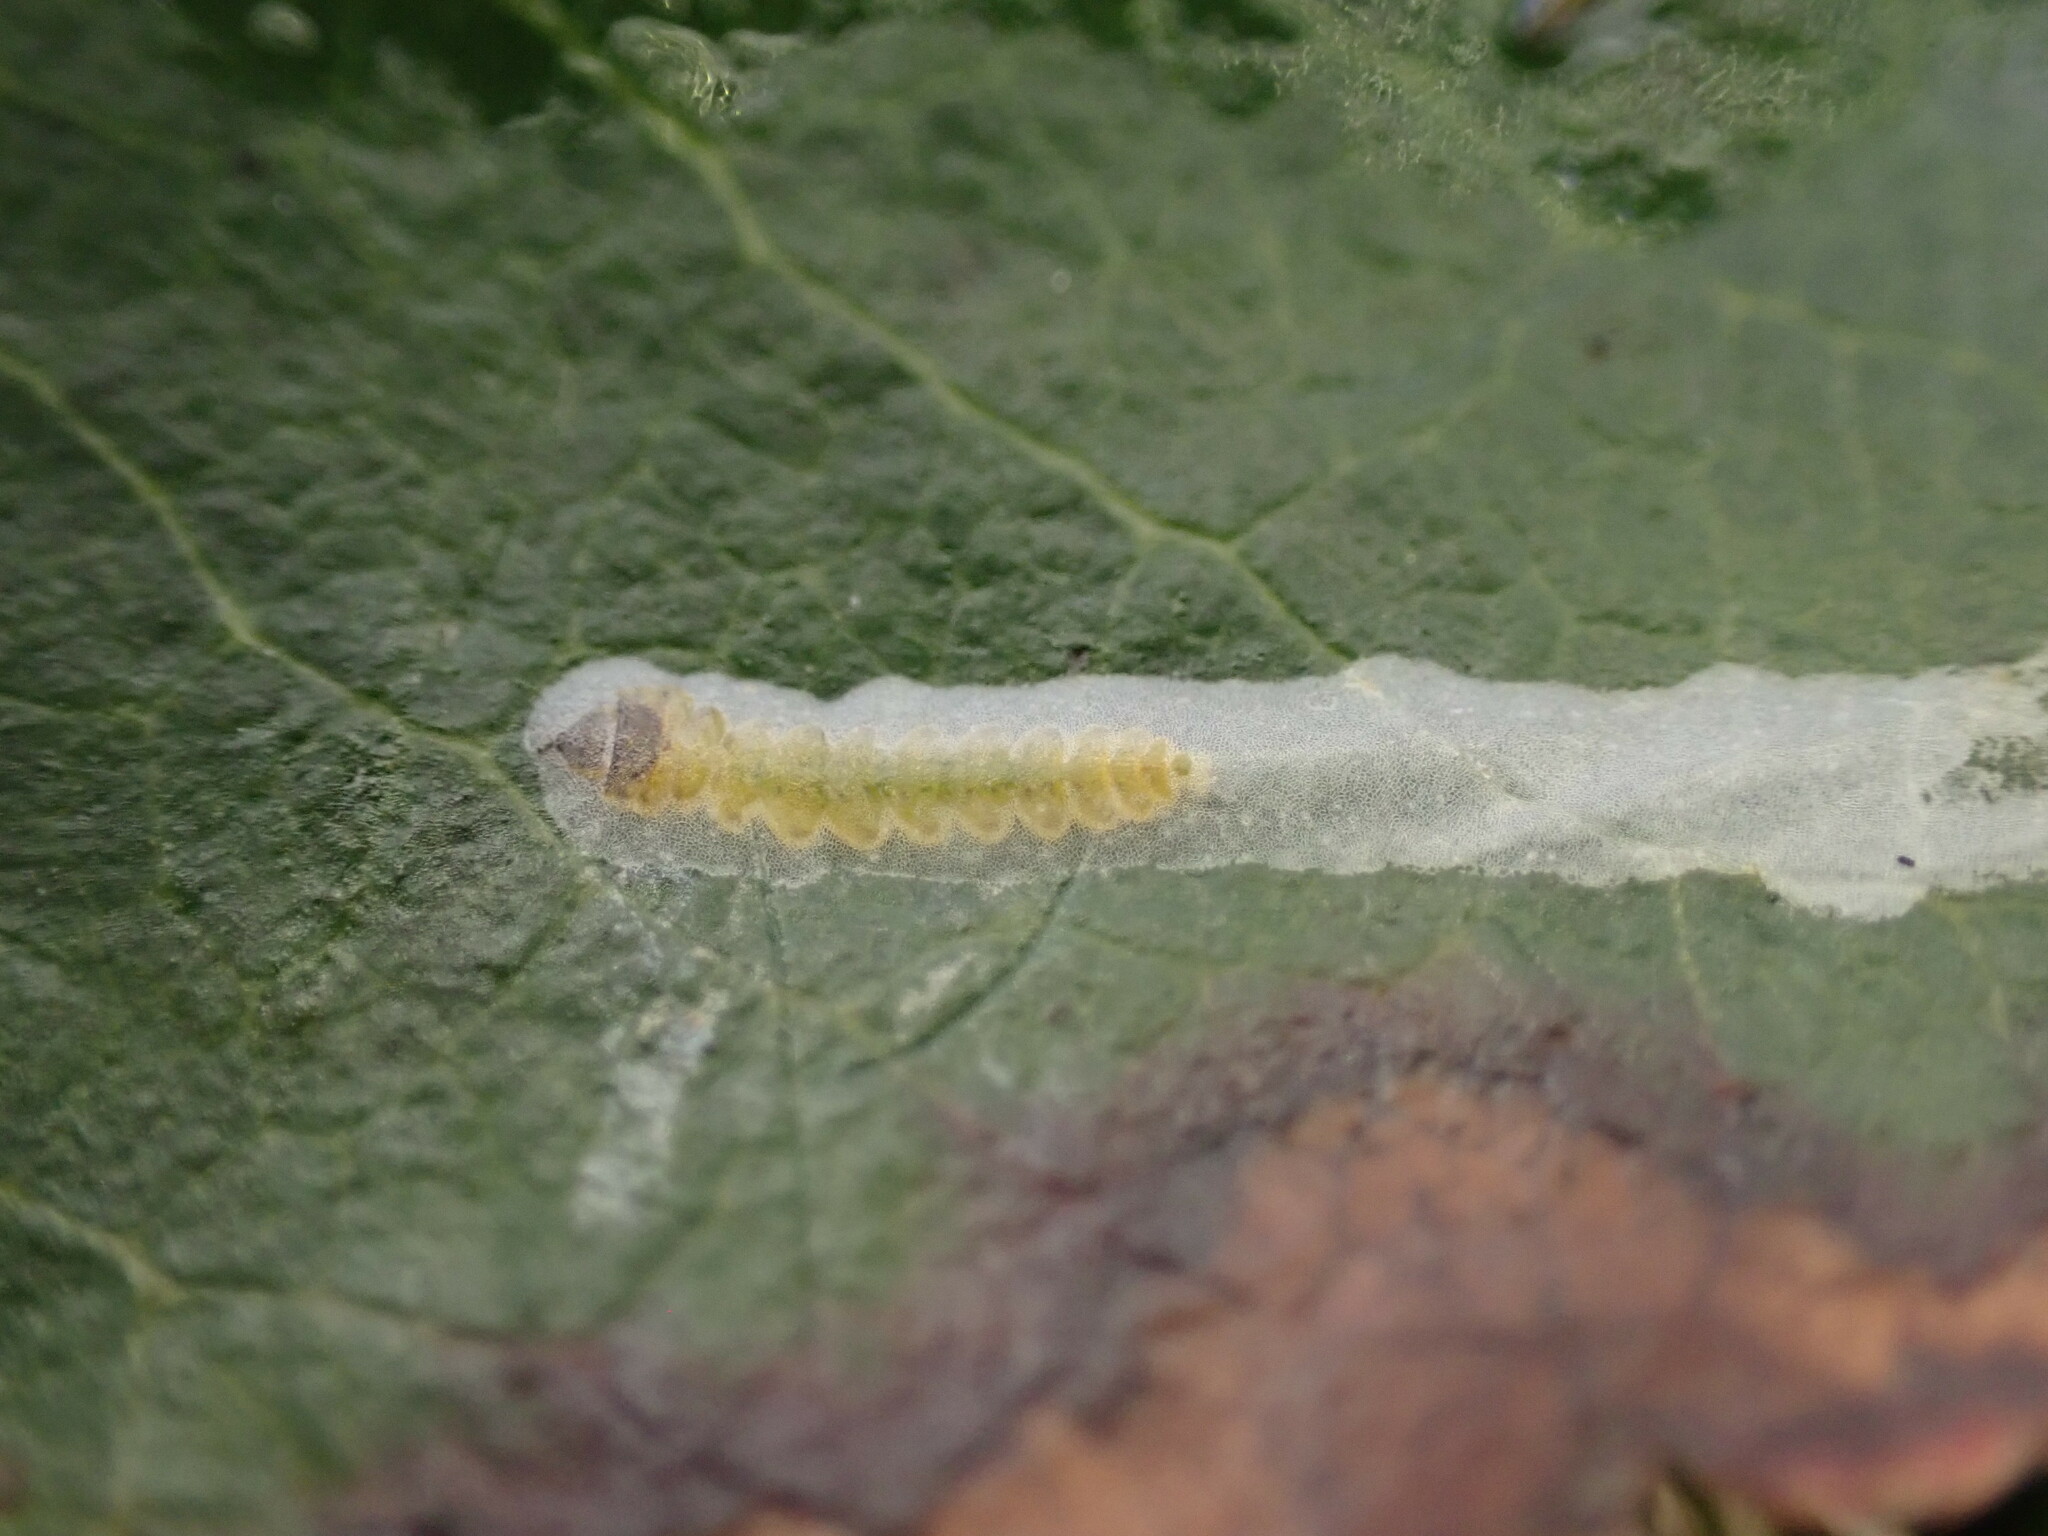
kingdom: Animalia
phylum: Arthropoda
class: Insecta
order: Lepidoptera
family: Gracillariidae
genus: Marmara
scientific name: Marmara arbutiella
